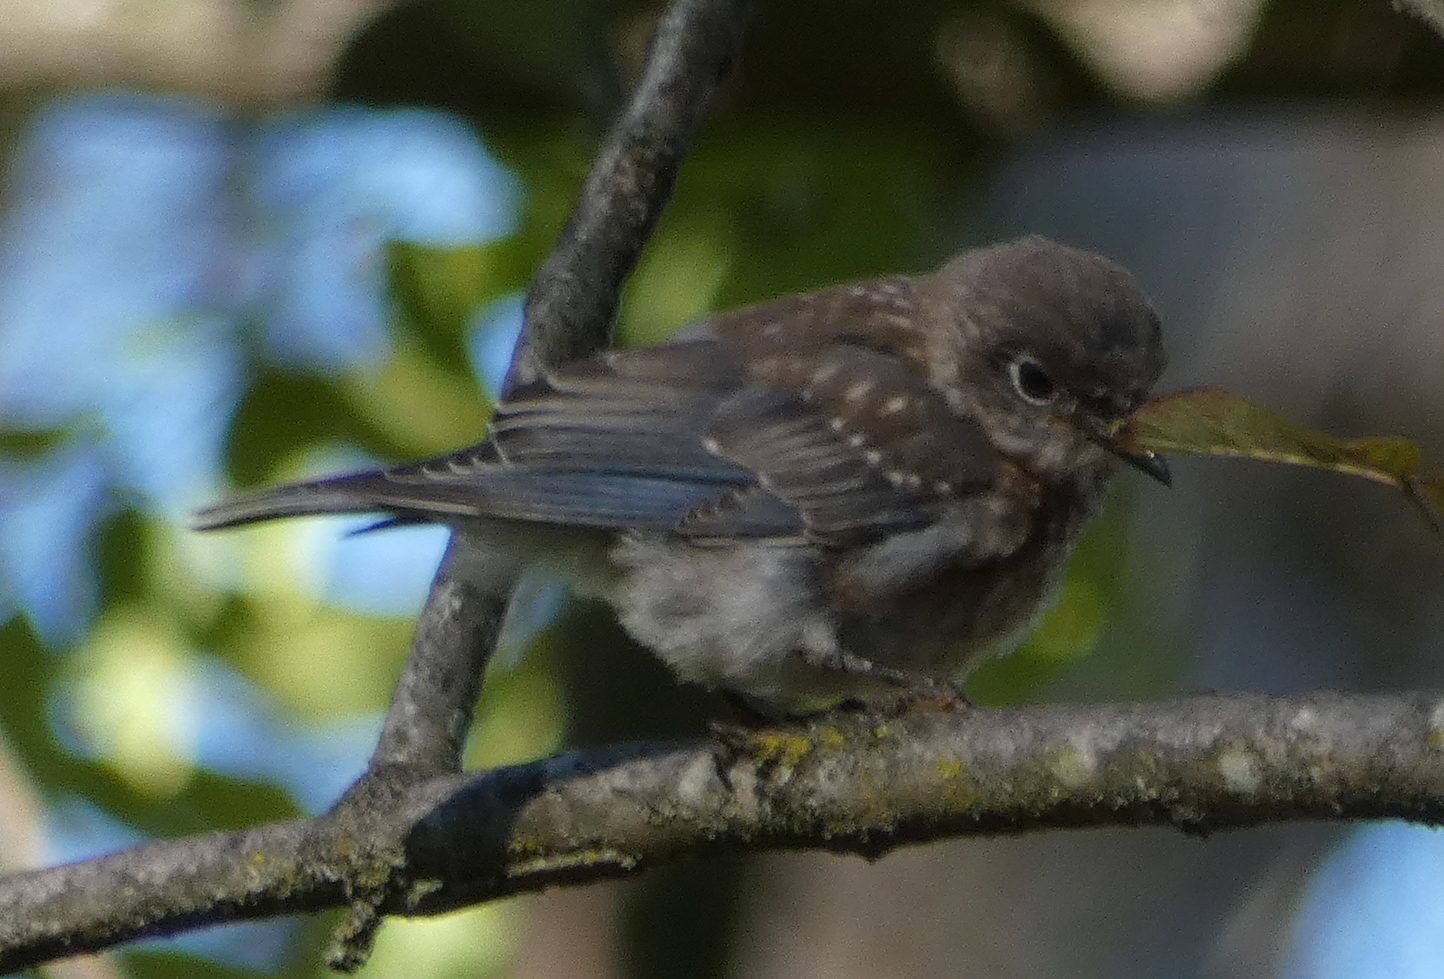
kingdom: Animalia
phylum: Chordata
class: Aves
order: Passeriformes
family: Turdidae
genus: Sialia
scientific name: Sialia sialis
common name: Eastern bluebird
